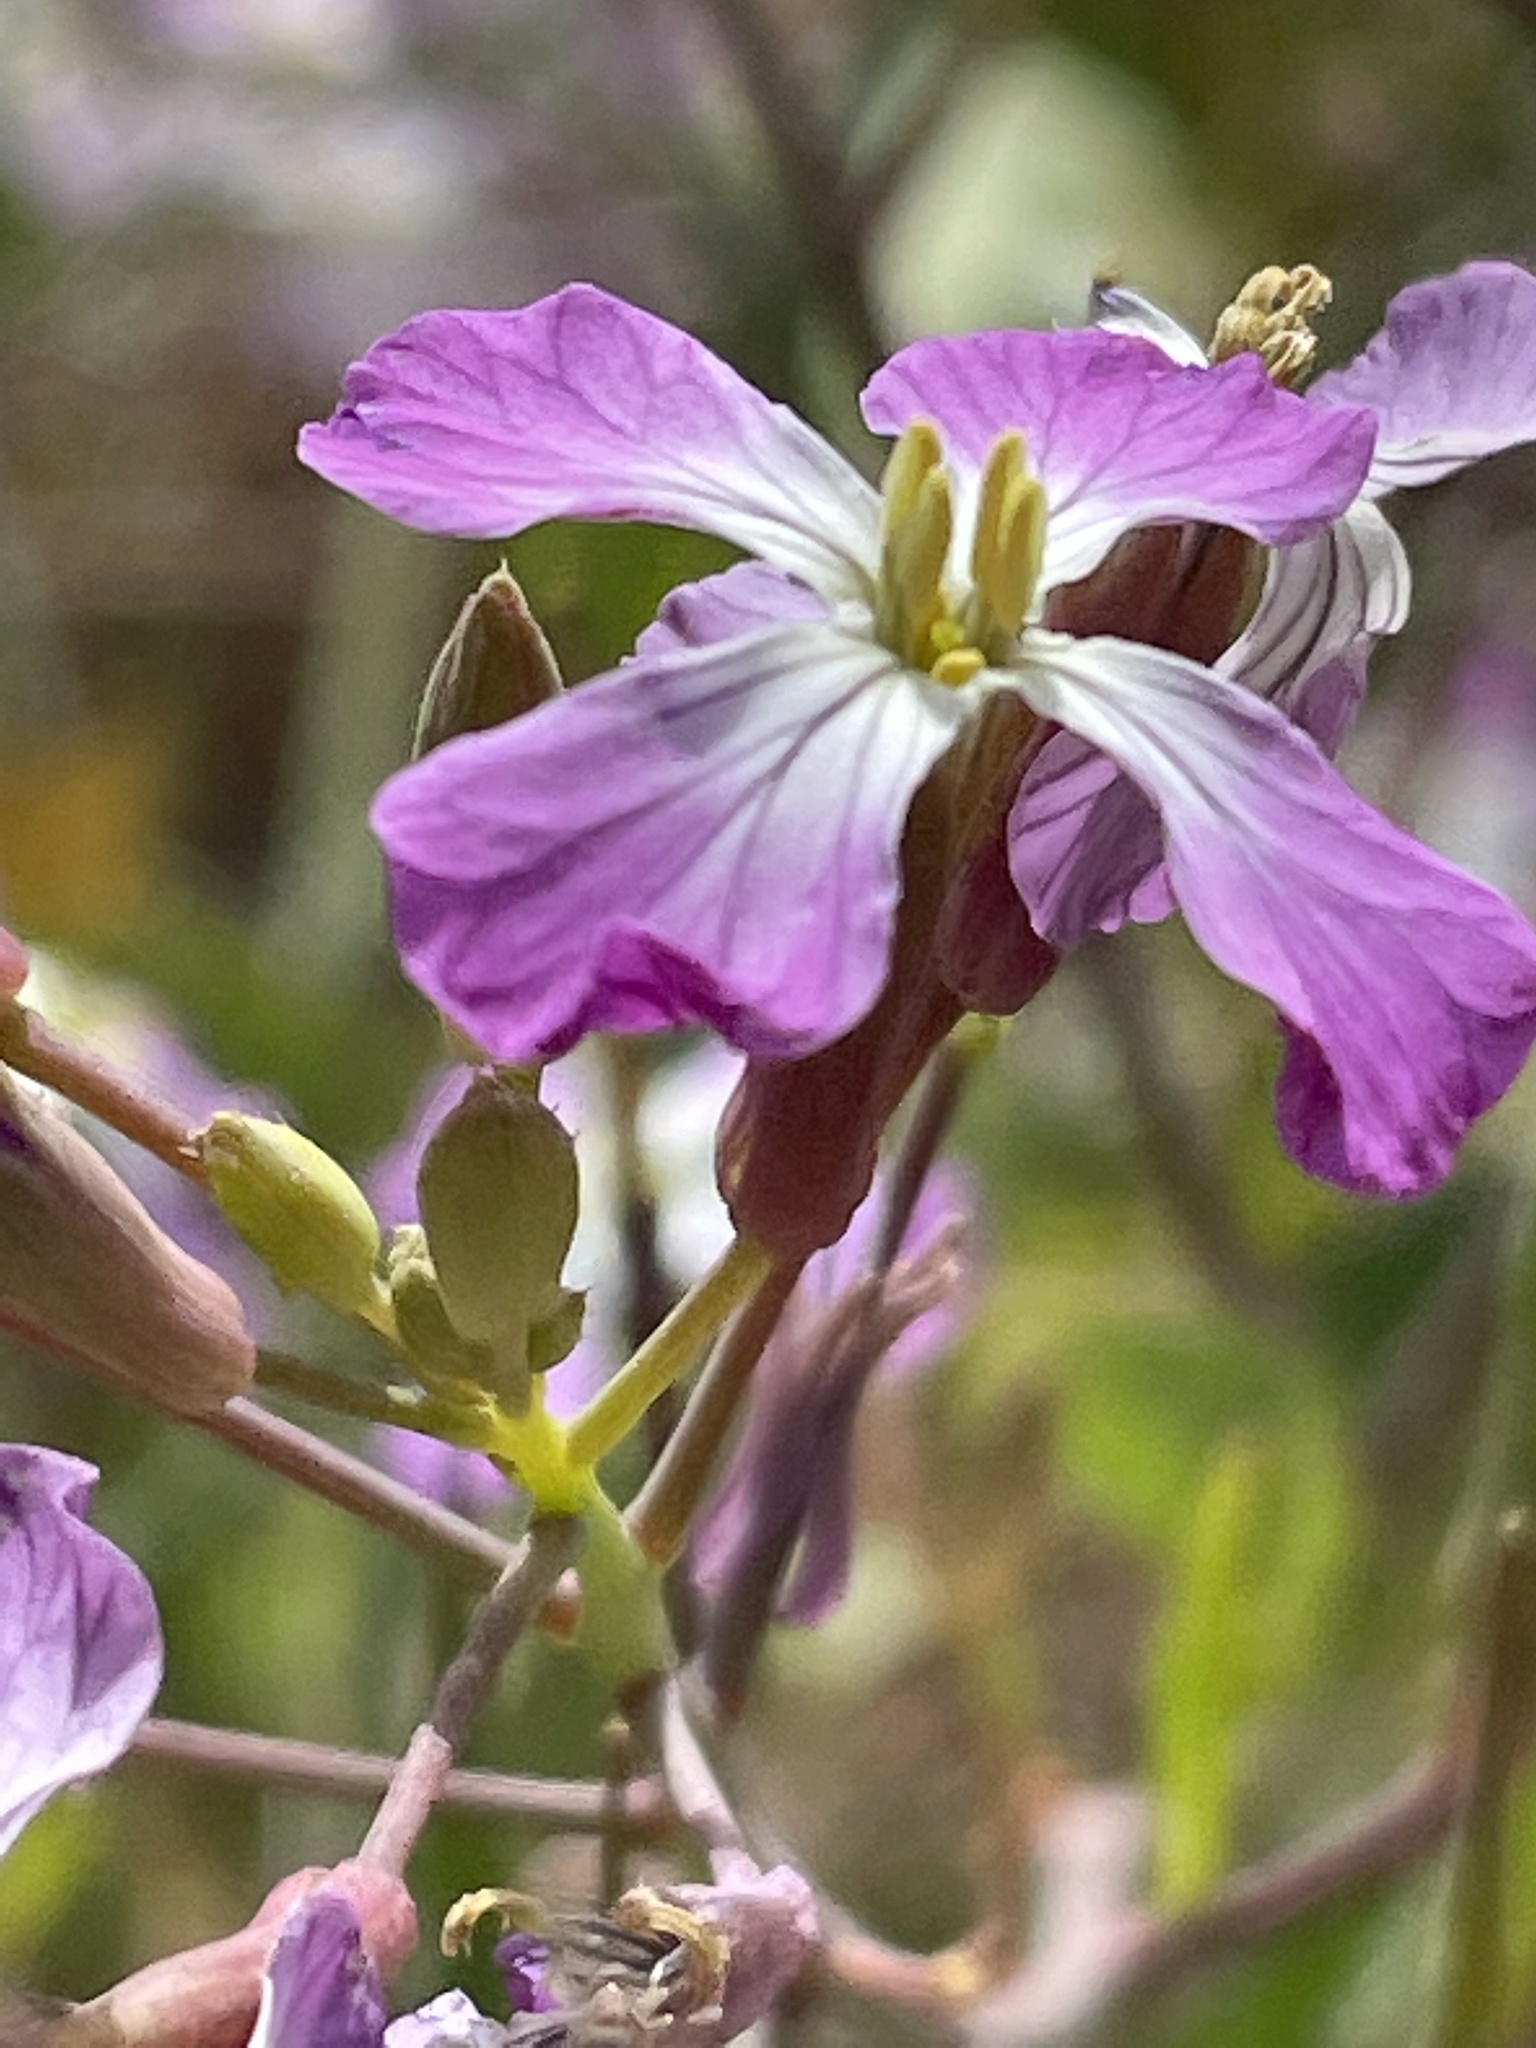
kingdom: Plantae
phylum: Tracheophyta
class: Magnoliopsida
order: Brassicales
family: Brassicaceae
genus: Raphanus
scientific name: Raphanus sativus
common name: Cultivated radish
